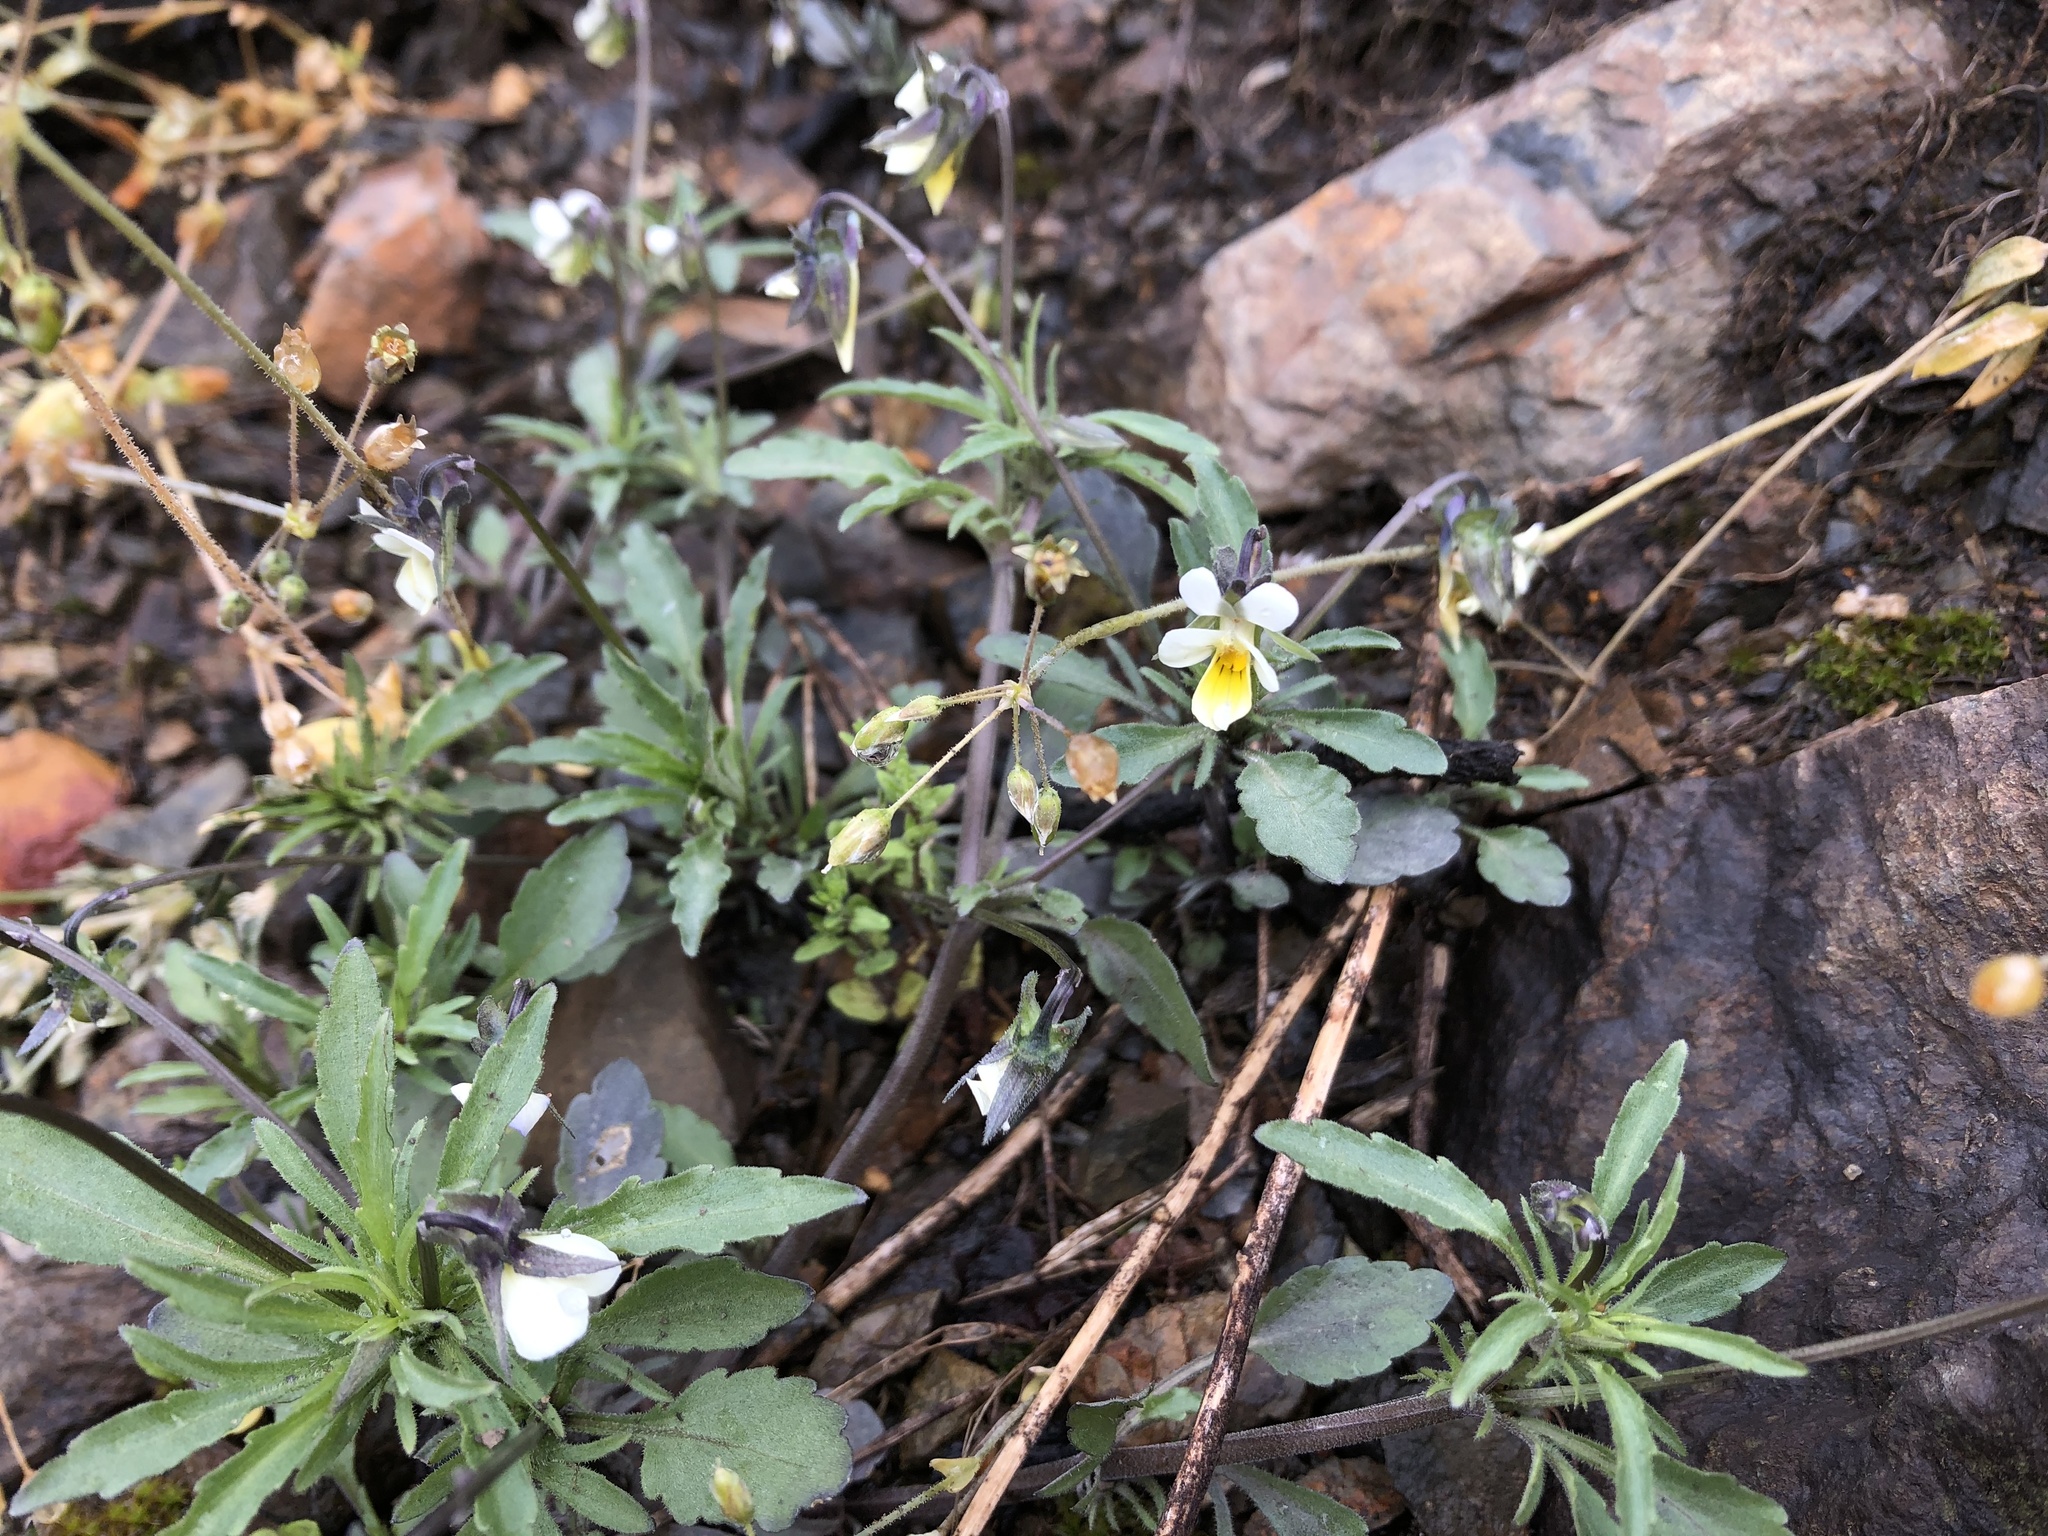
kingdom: Plantae
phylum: Tracheophyta
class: Magnoliopsida
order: Malpighiales
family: Violaceae
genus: Viola
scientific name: Viola arvensis
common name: Field pansy
